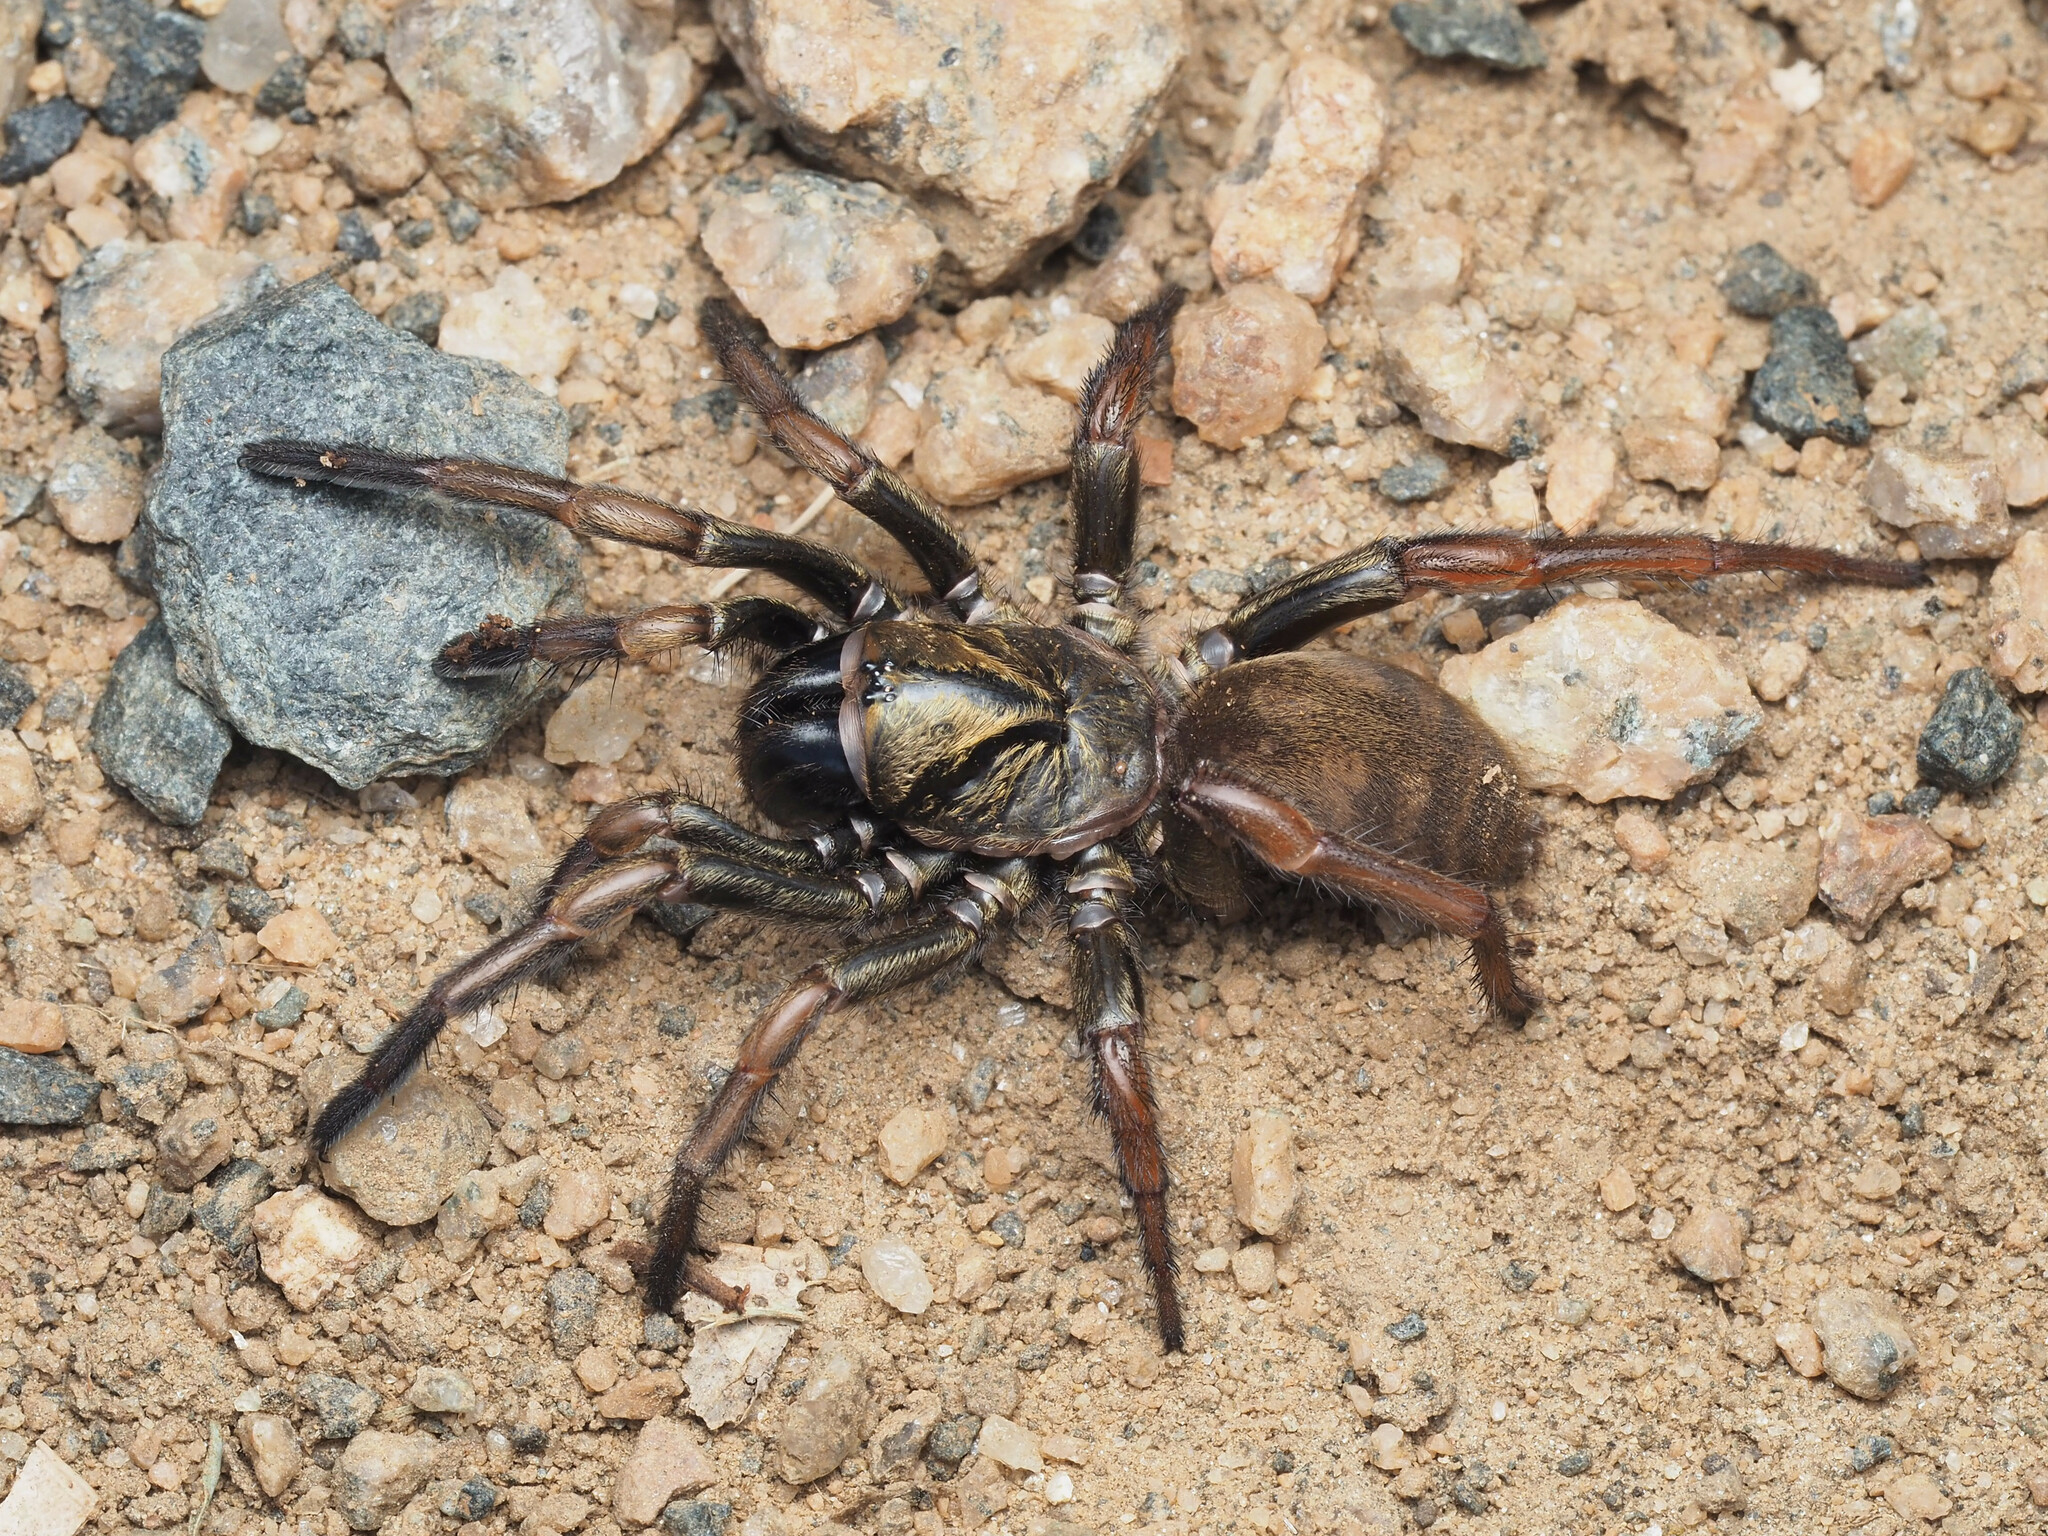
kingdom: Animalia
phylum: Arthropoda
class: Arachnida
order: Araneae
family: Idiopidae
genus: Arbanitis
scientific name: Arbanitis
